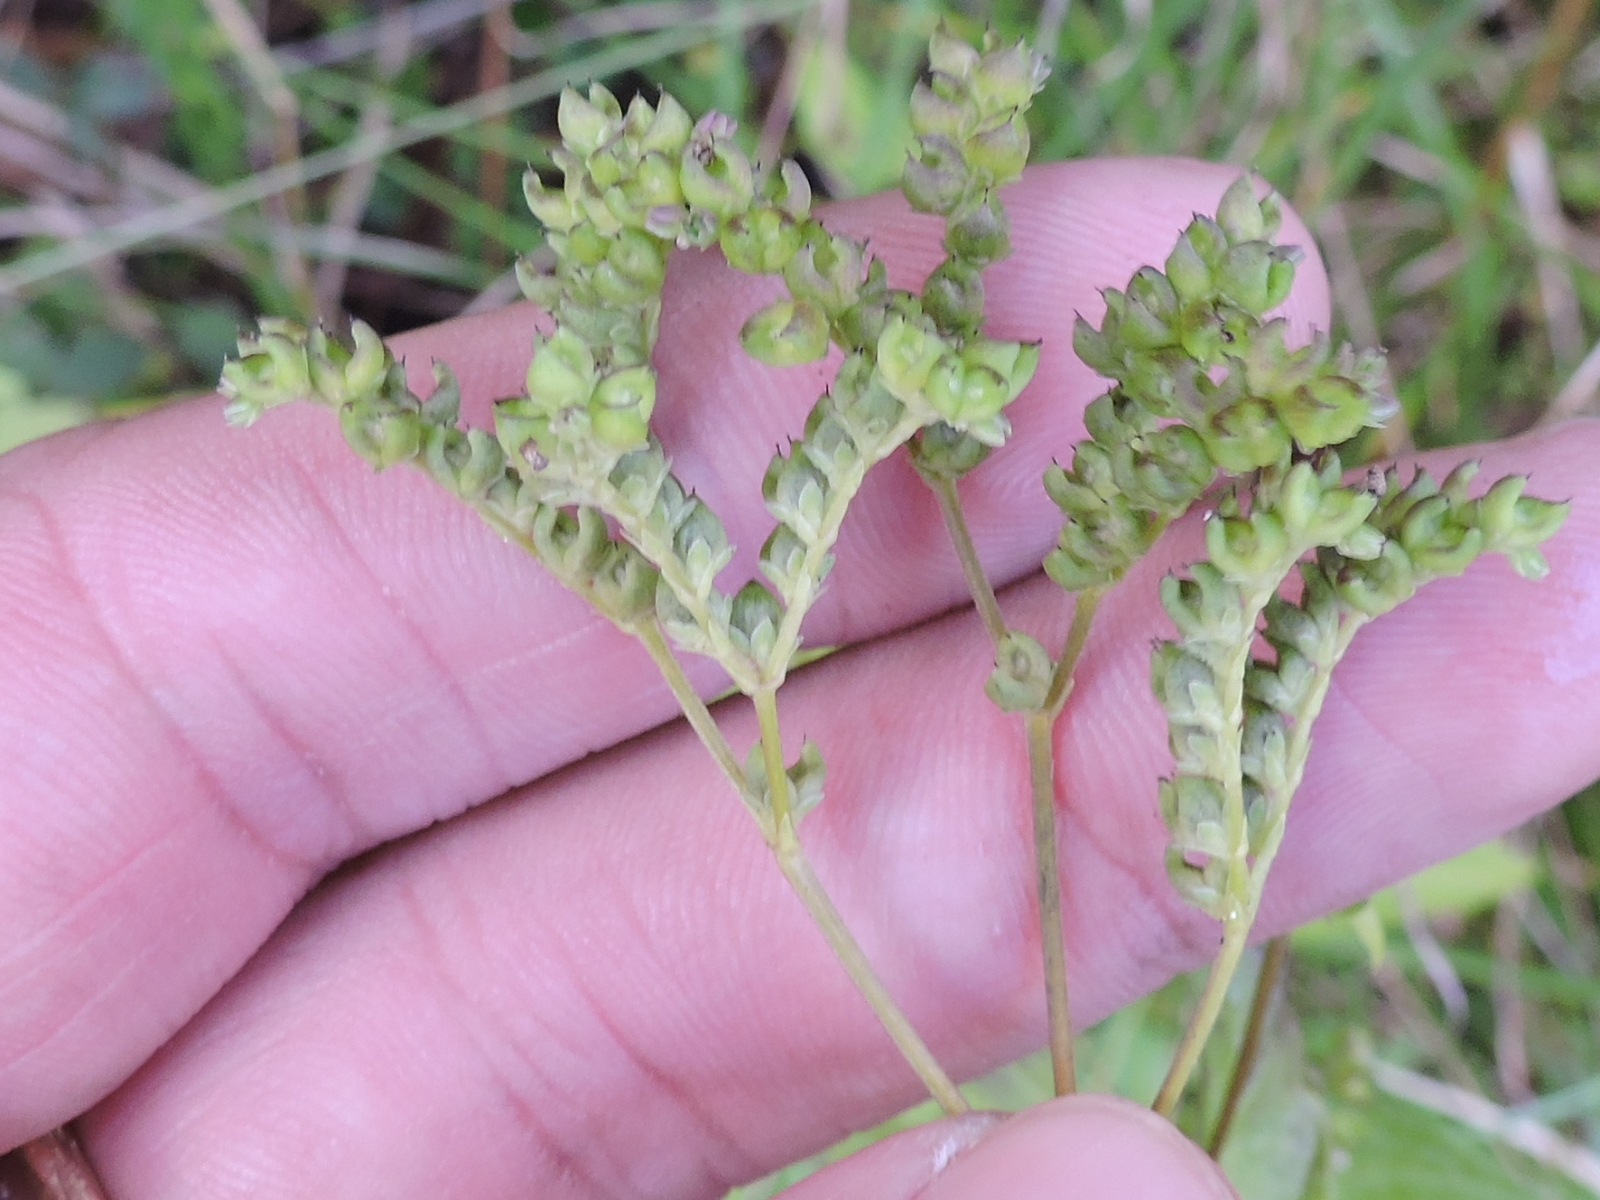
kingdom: Plantae
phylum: Tracheophyta
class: Magnoliopsida
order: Gentianales
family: Loganiaceae
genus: Mitreola
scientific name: Mitreola petiolata
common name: Lax hornpod
